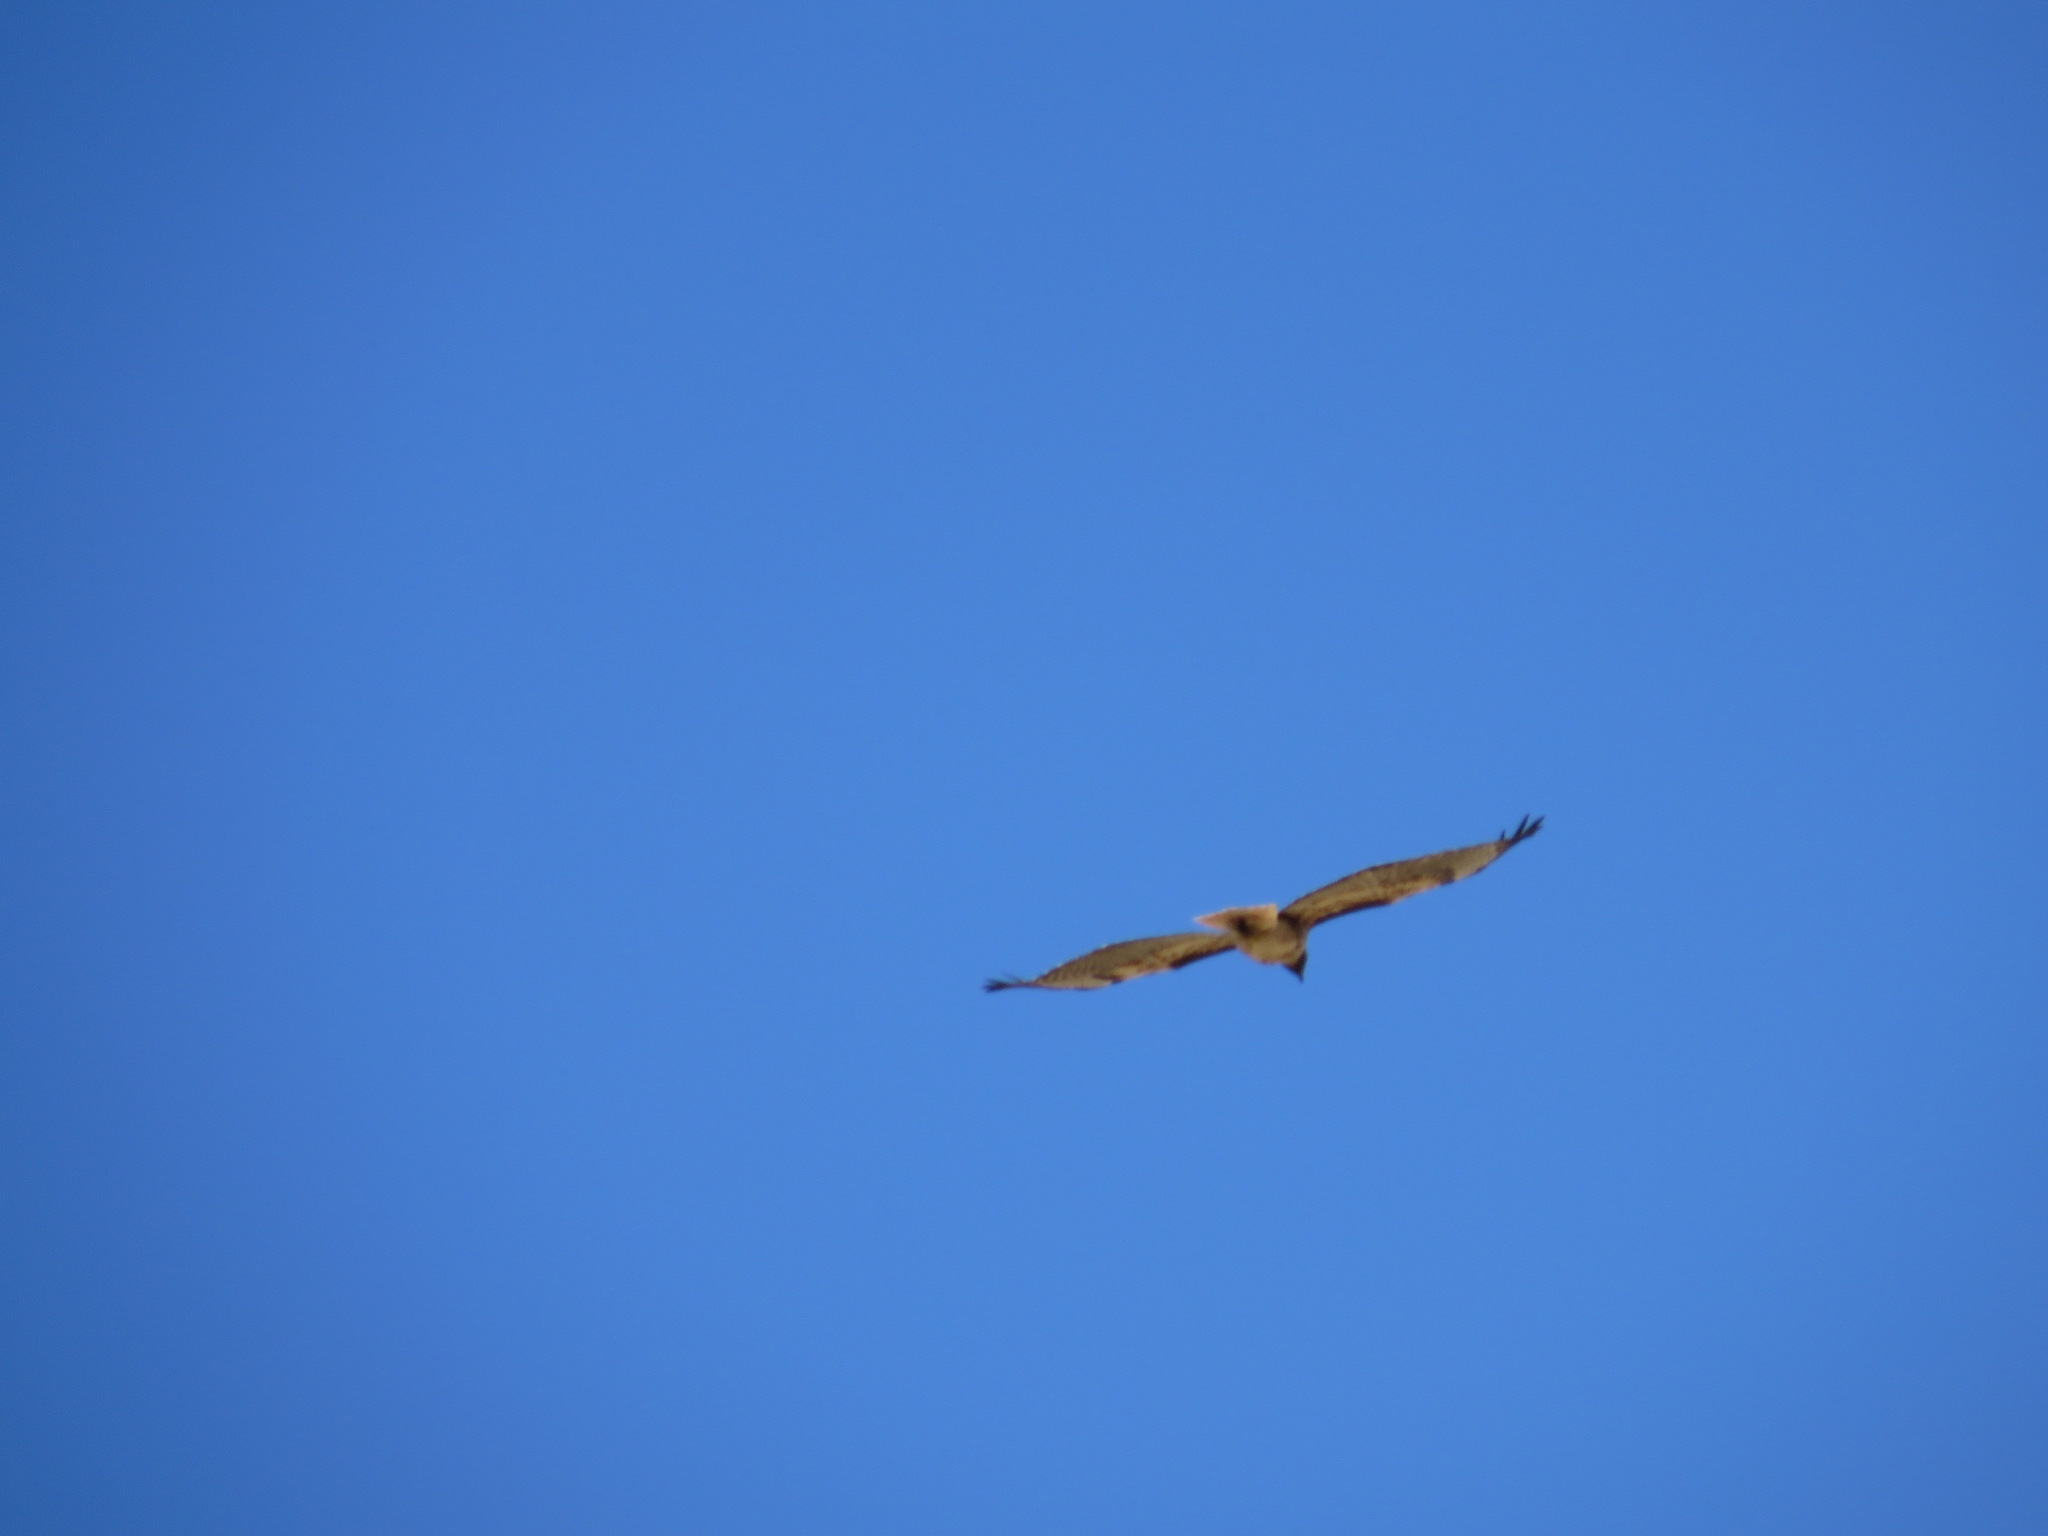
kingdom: Animalia
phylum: Chordata
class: Aves
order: Accipitriformes
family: Accipitridae
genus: Buteo
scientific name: Buteo jamaicensis
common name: Red-tailed hawk
